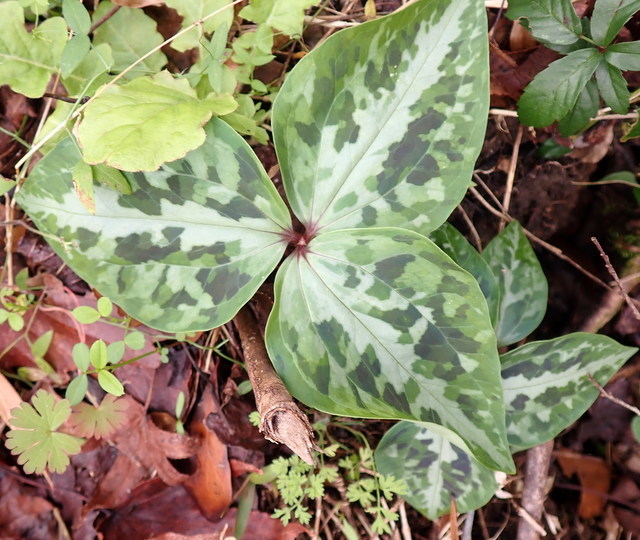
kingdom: Plantae
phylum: Tracheophyta
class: Liliopsida
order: Liliales
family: Melanthiaceae
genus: Trillium
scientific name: Trillium underwoodii
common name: Longbract wakerobin
